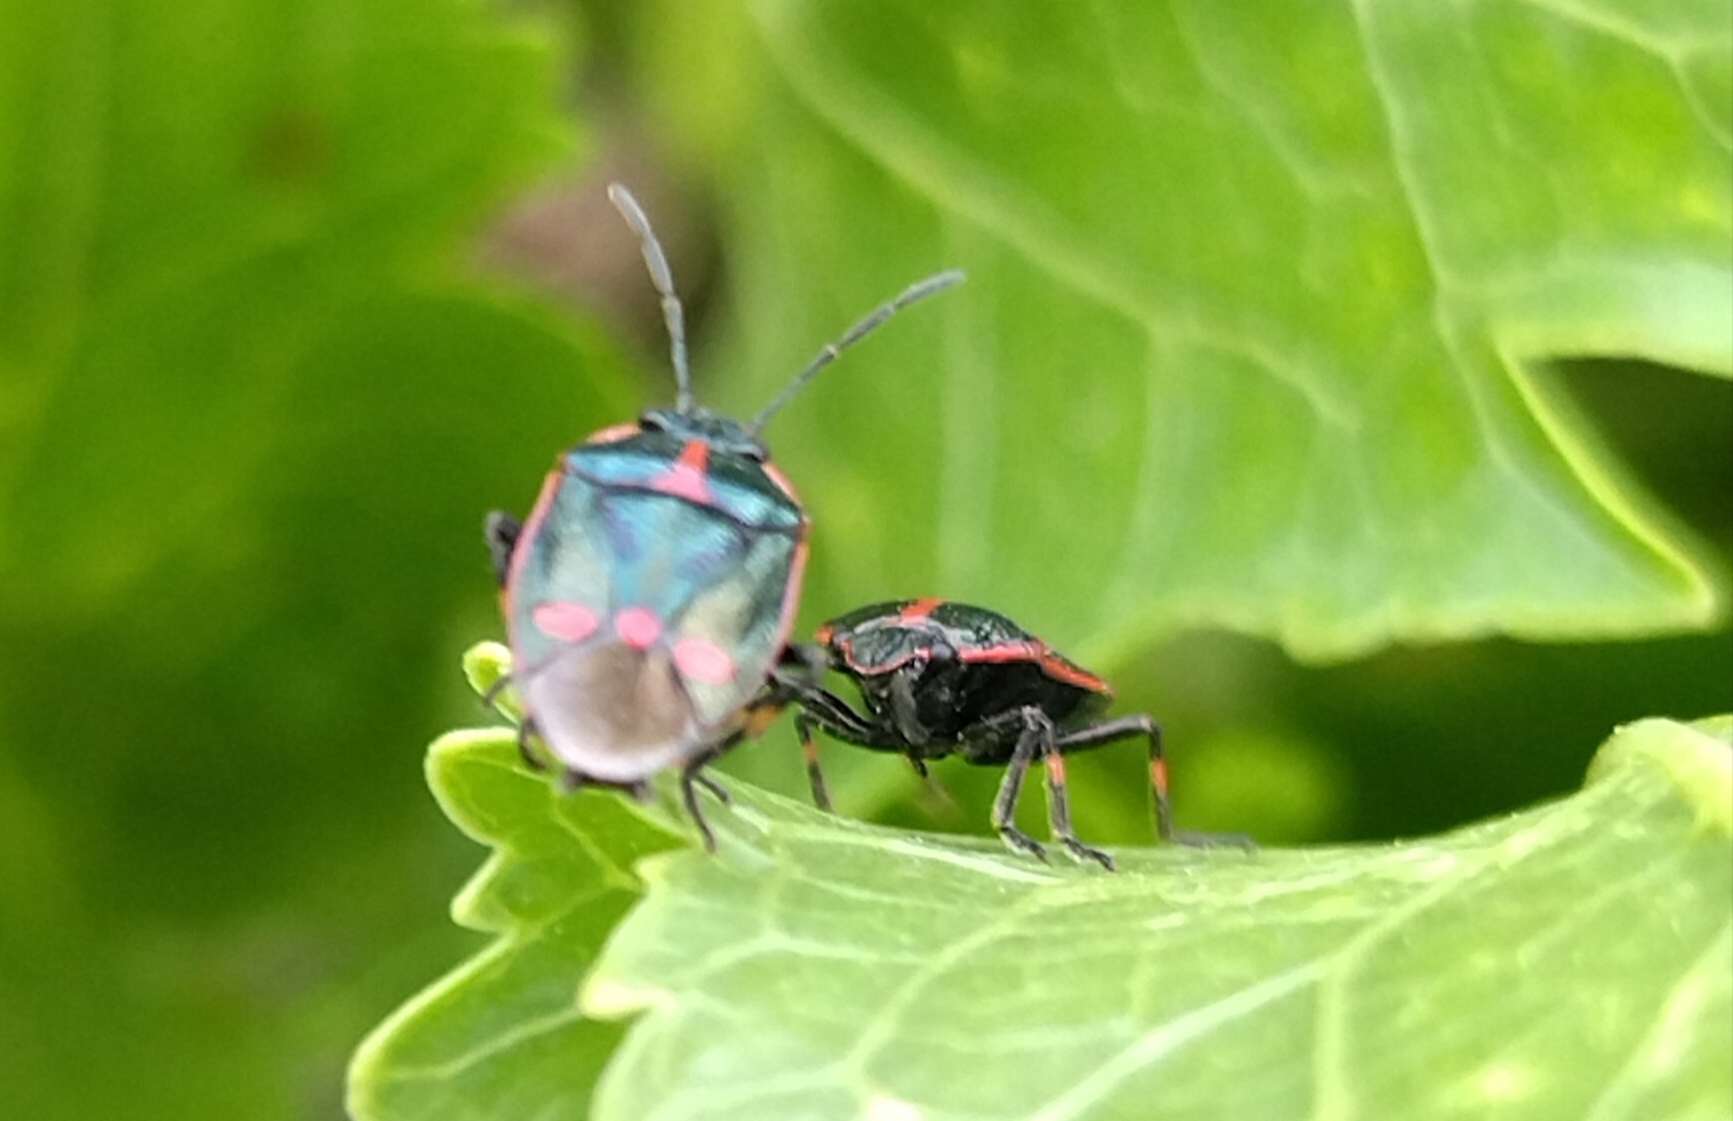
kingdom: Animalia
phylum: Arthropoda
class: Insecta
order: Hemiptera
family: Pentatomidae
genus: Eurydema
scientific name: Eurydema oleracea
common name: Cabbage bug
